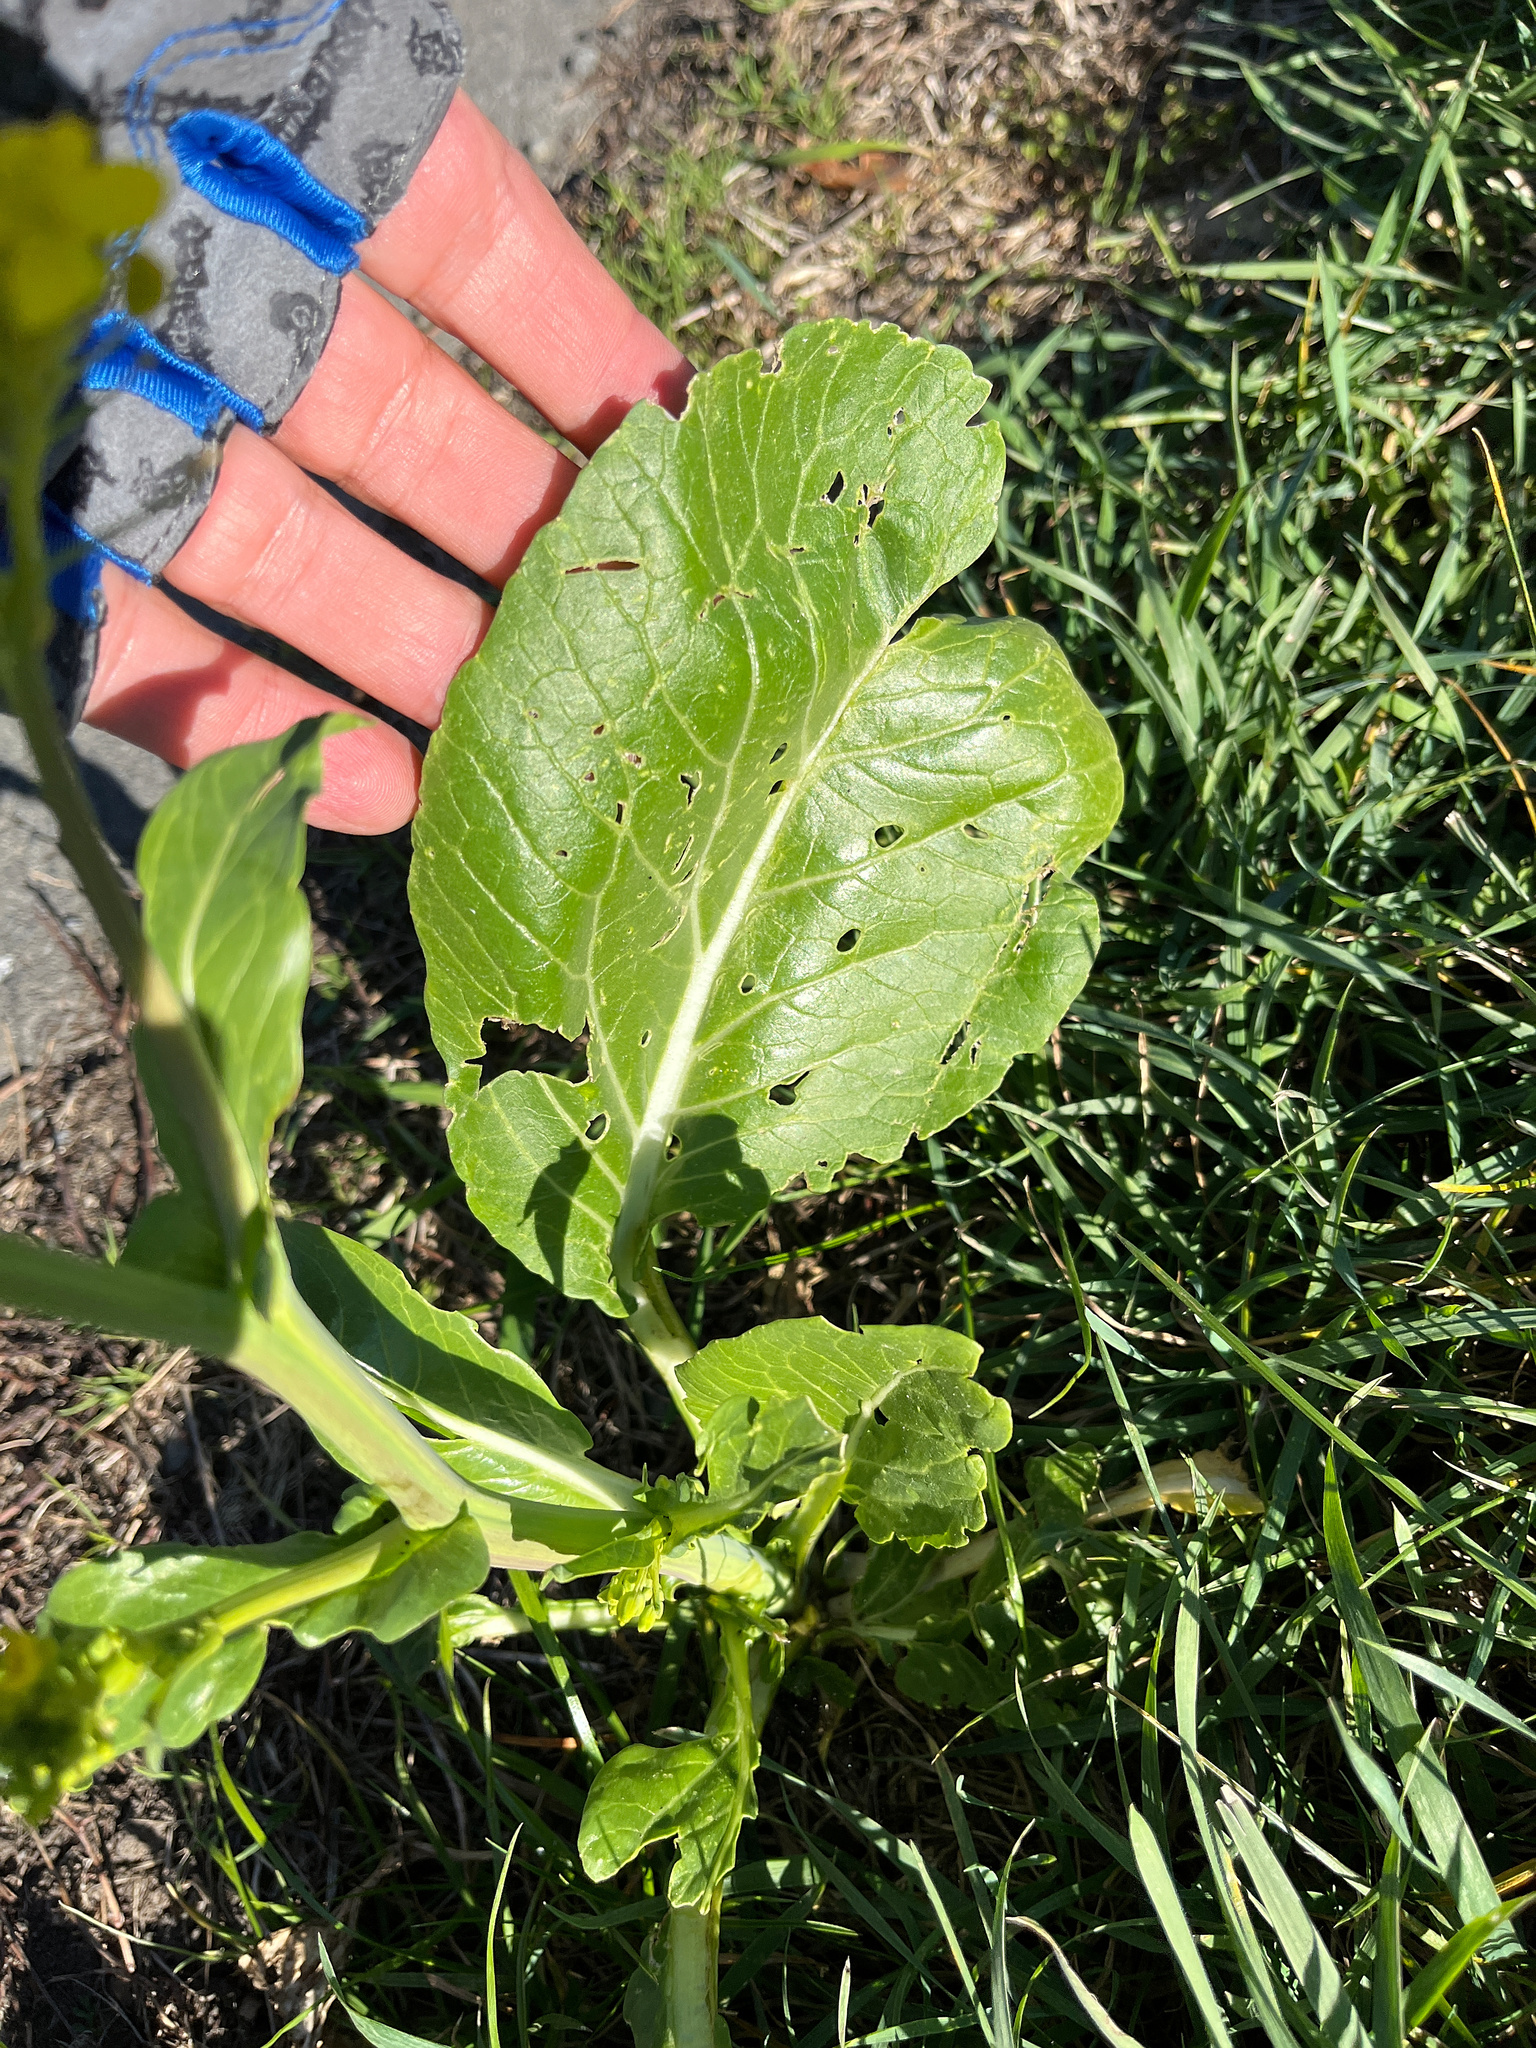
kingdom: Plantae
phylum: Tracheophyta
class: Magnoliopsida
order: Brassicales
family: Brassicaceae
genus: Brassica
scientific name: Brassica rapa
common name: Field mustard
